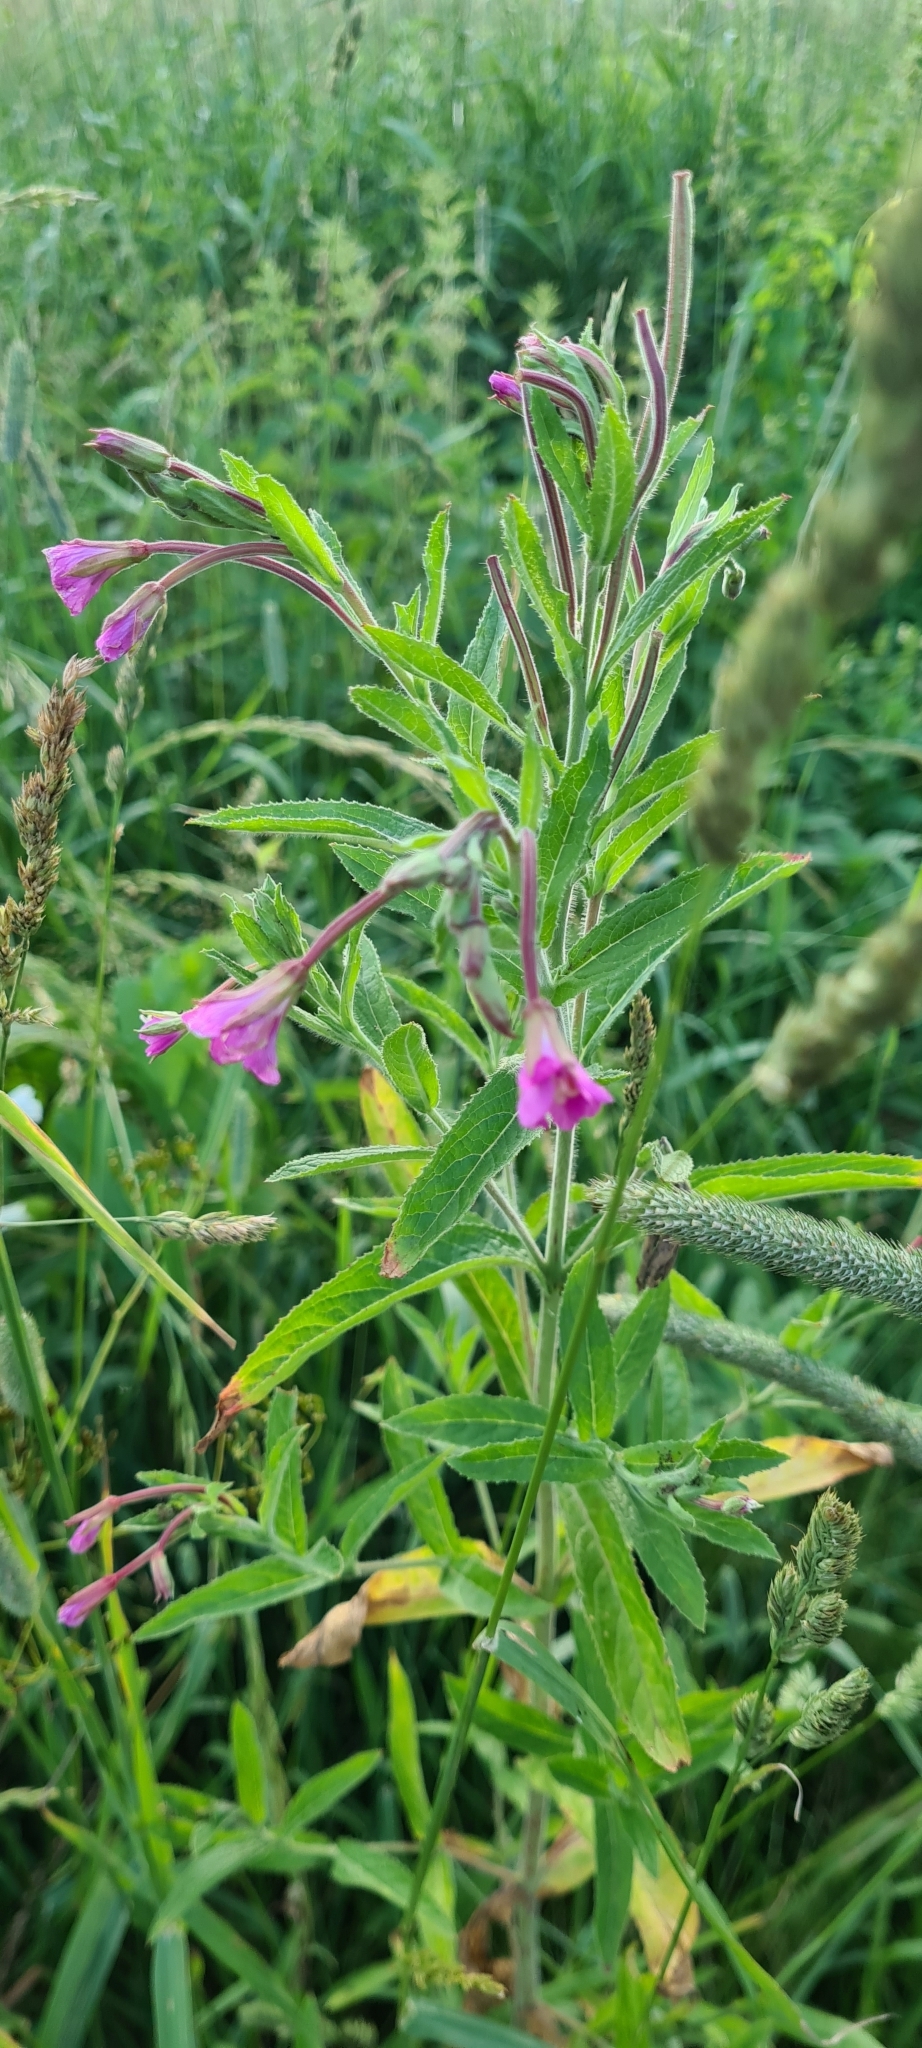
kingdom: Plantae
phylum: Tracheophyta
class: Magnoliopsida
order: Myrtales
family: Onagraceae
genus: Epilobium
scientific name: Epilobium hirsutum
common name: Great willowherb
